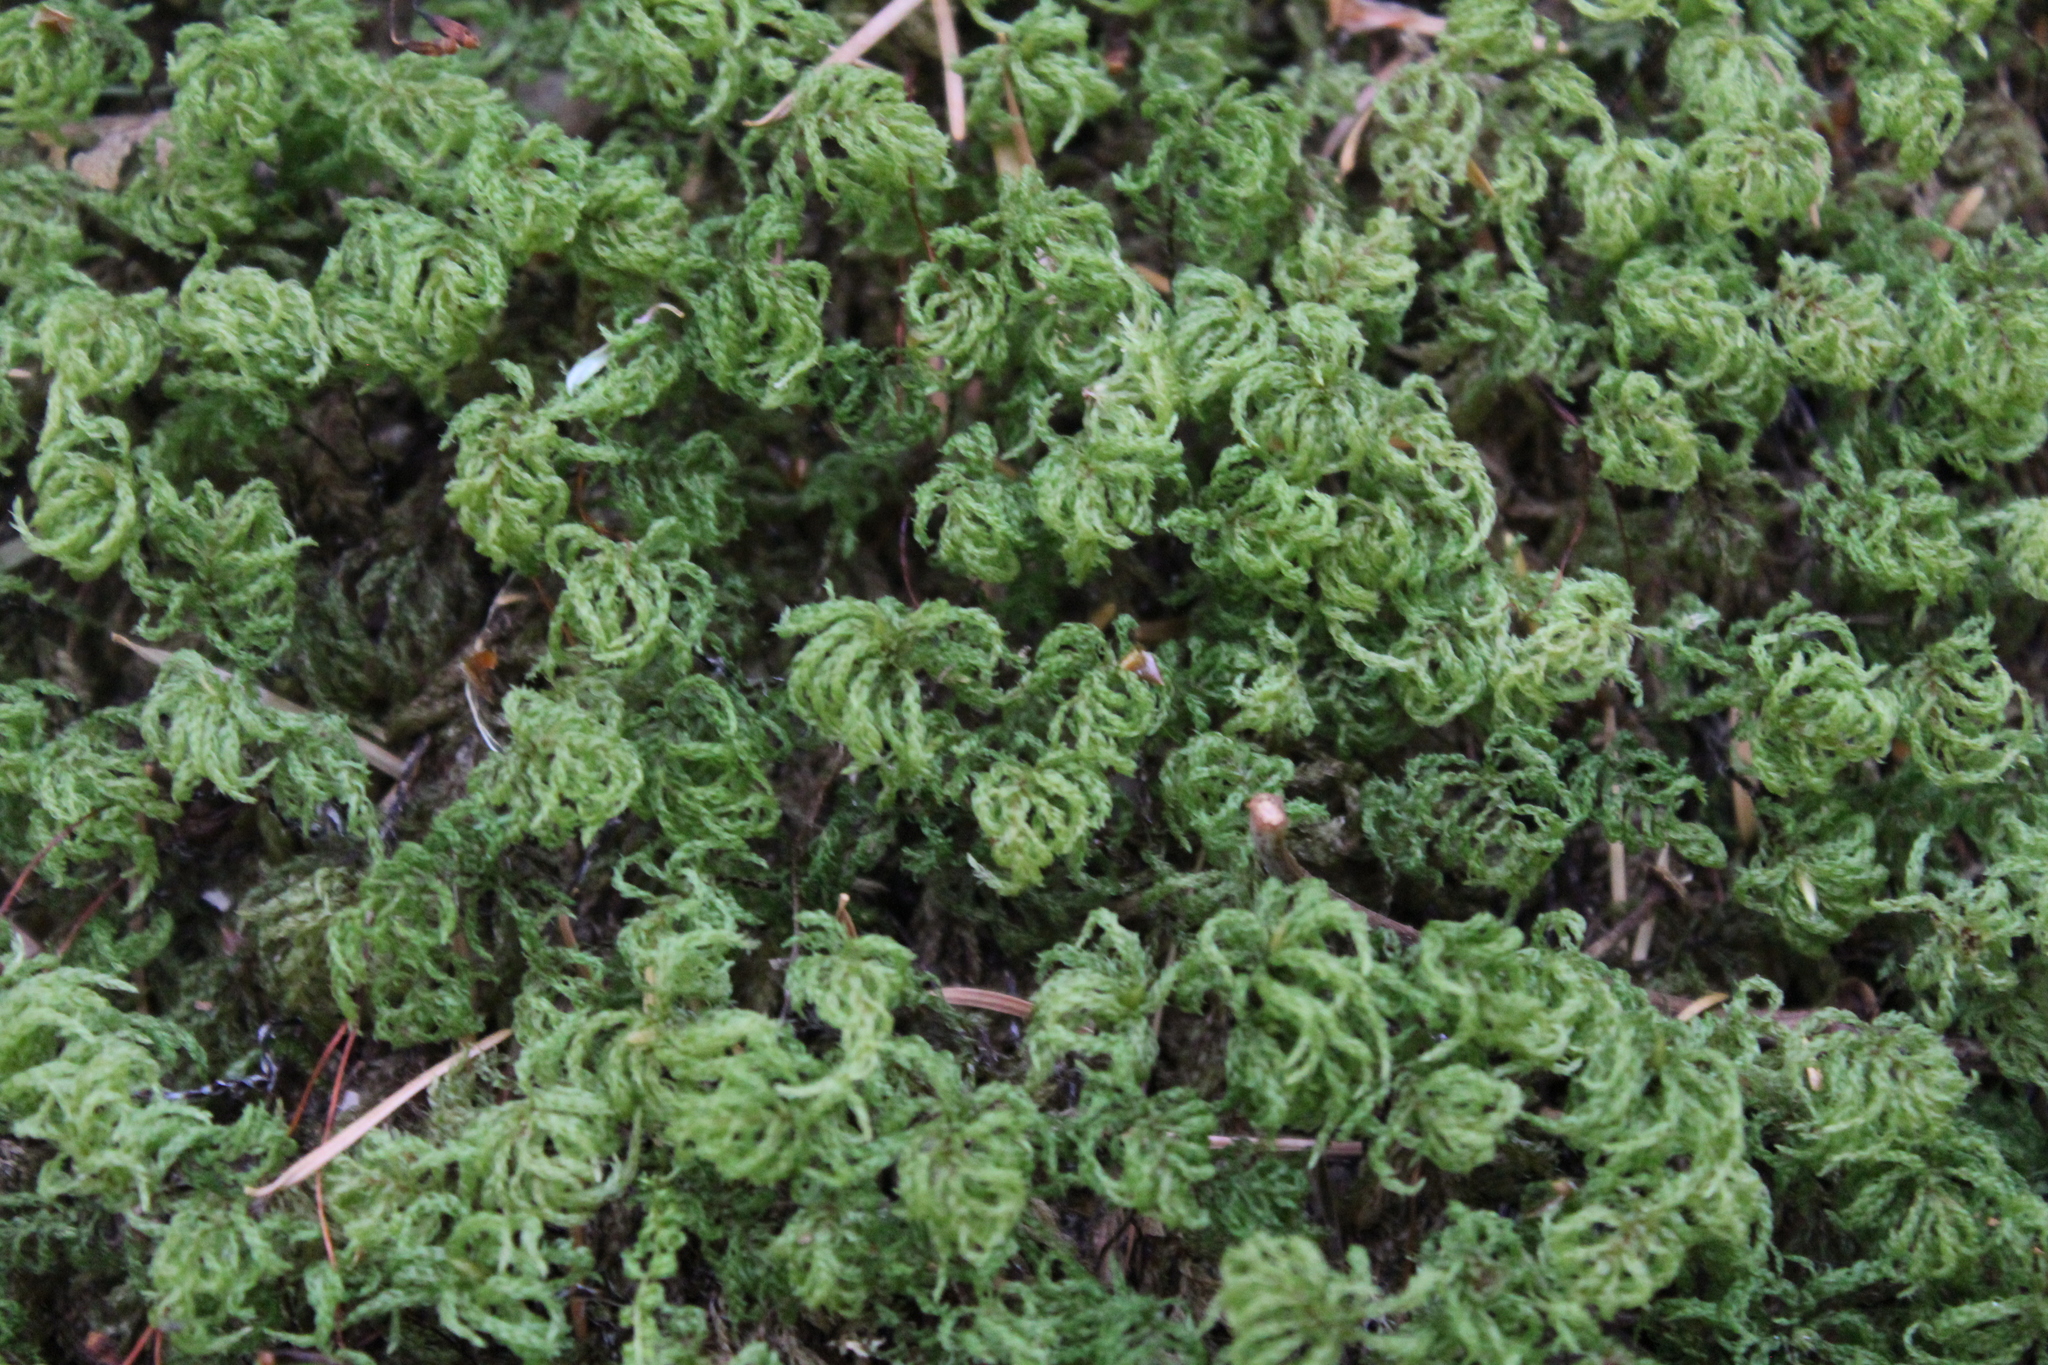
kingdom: Plantae
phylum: Bryophyta
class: Bryopsida
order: Bryales
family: Mniaceae
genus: Leucolepis
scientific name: Leucolepis acanthoneura
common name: Leucolepis umbrella moss
